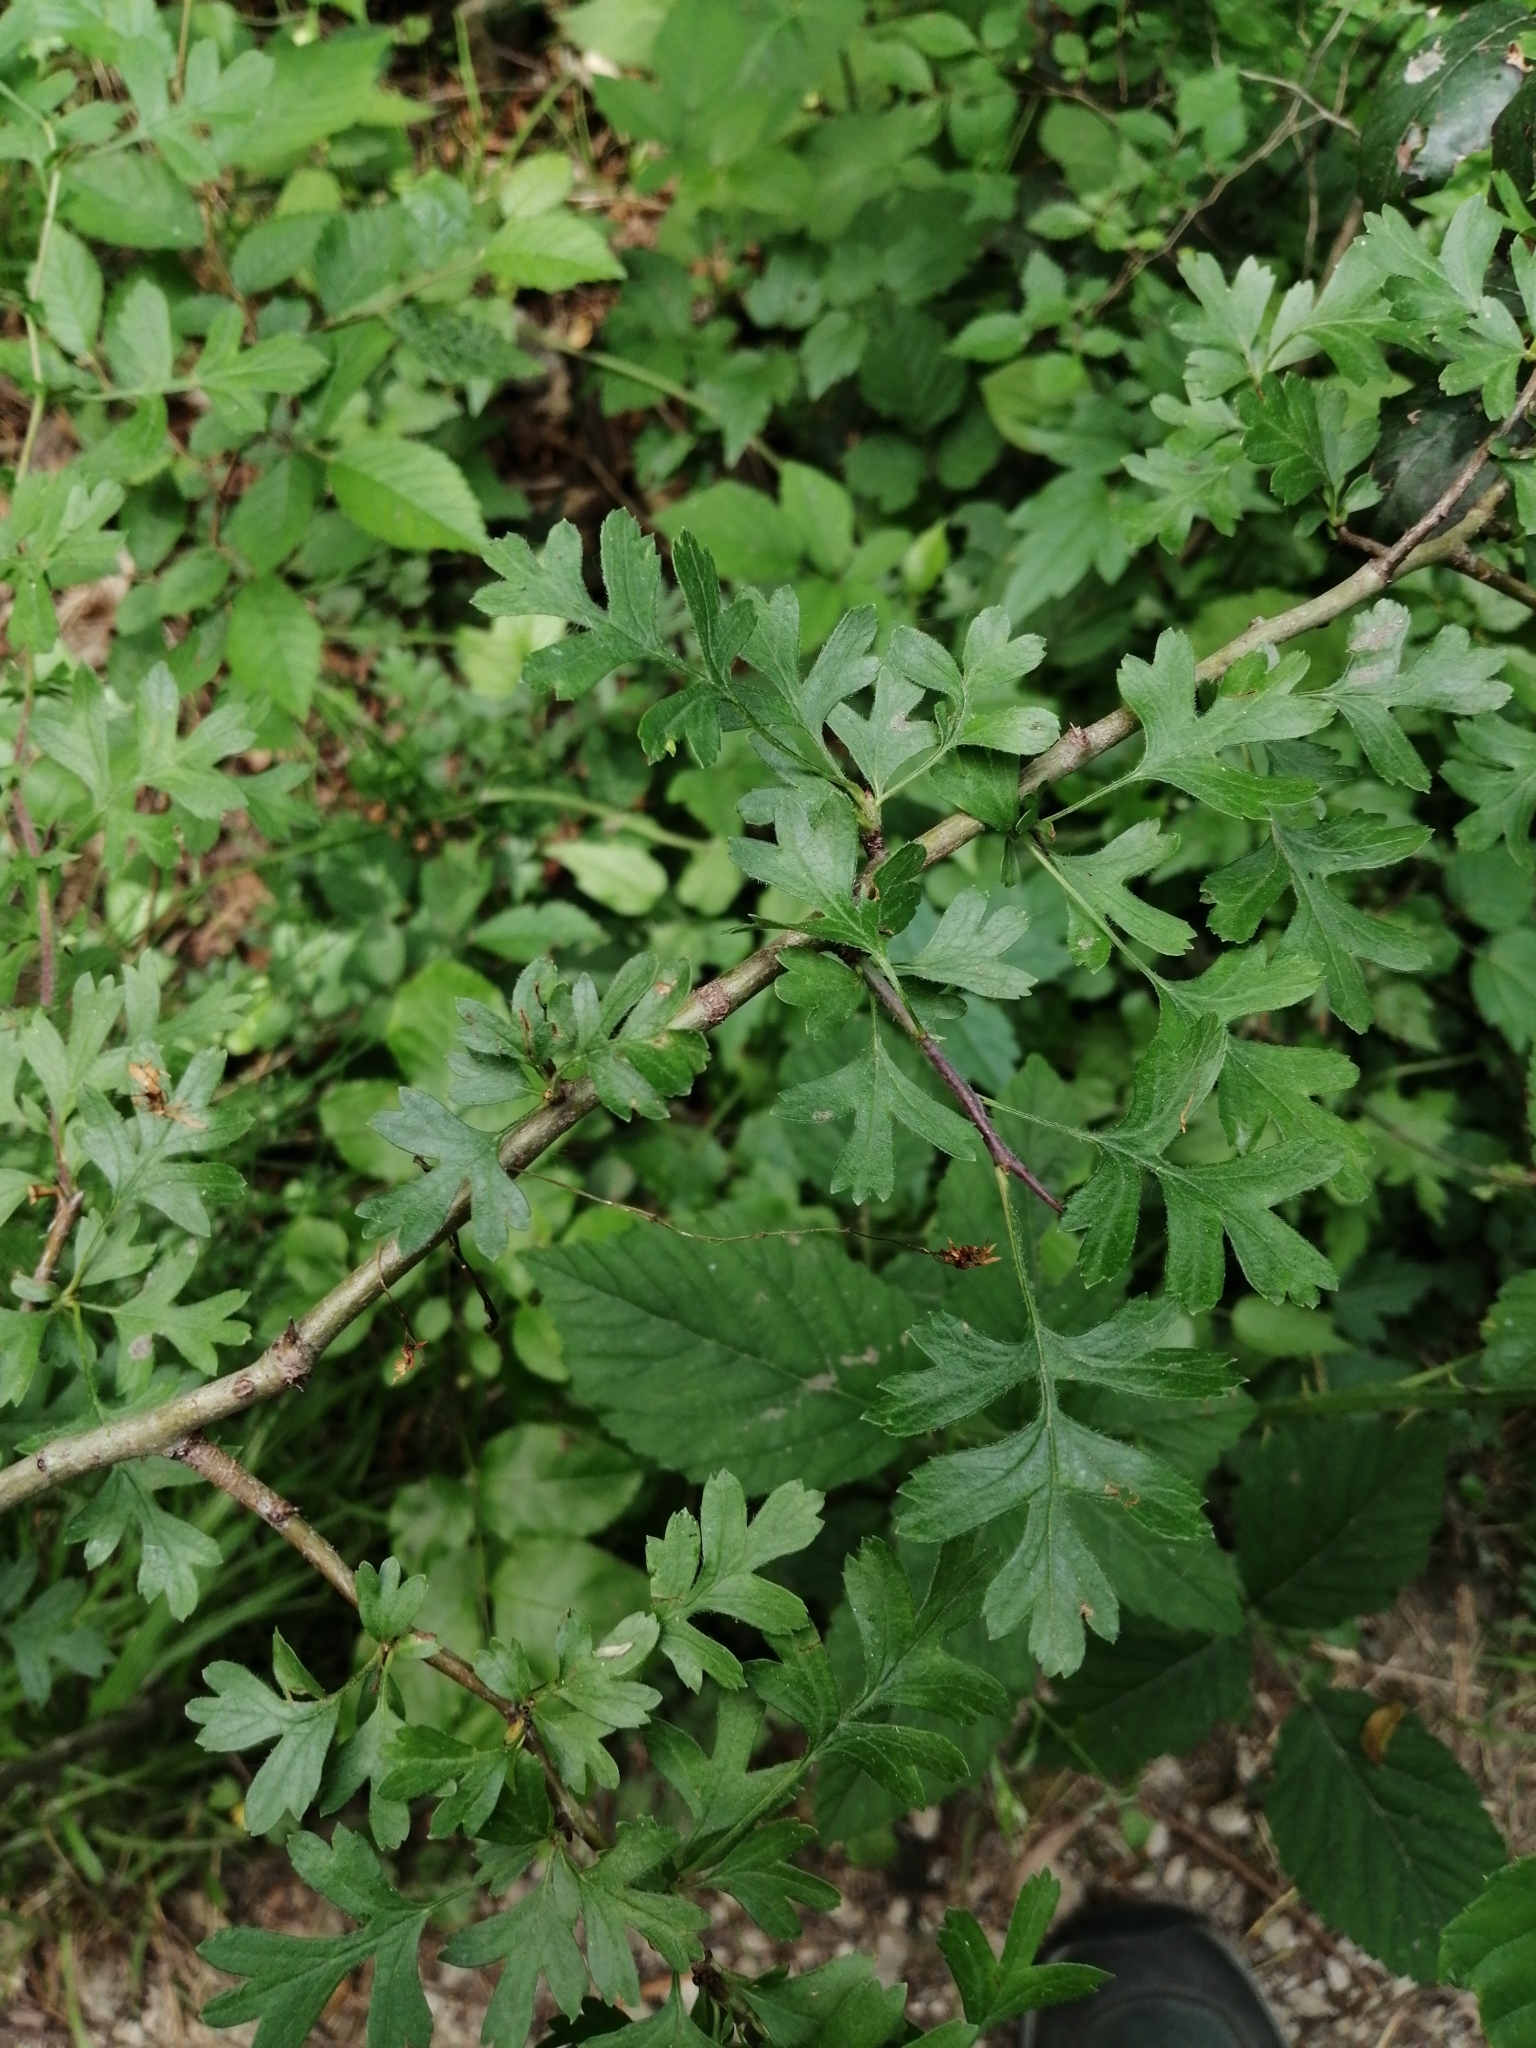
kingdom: Plantae
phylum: Tracheophyta
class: Magnoliopsida
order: Rosales
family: Rosaceae
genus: Crataegus
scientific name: Crataegus monogyna
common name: Hawthorn
